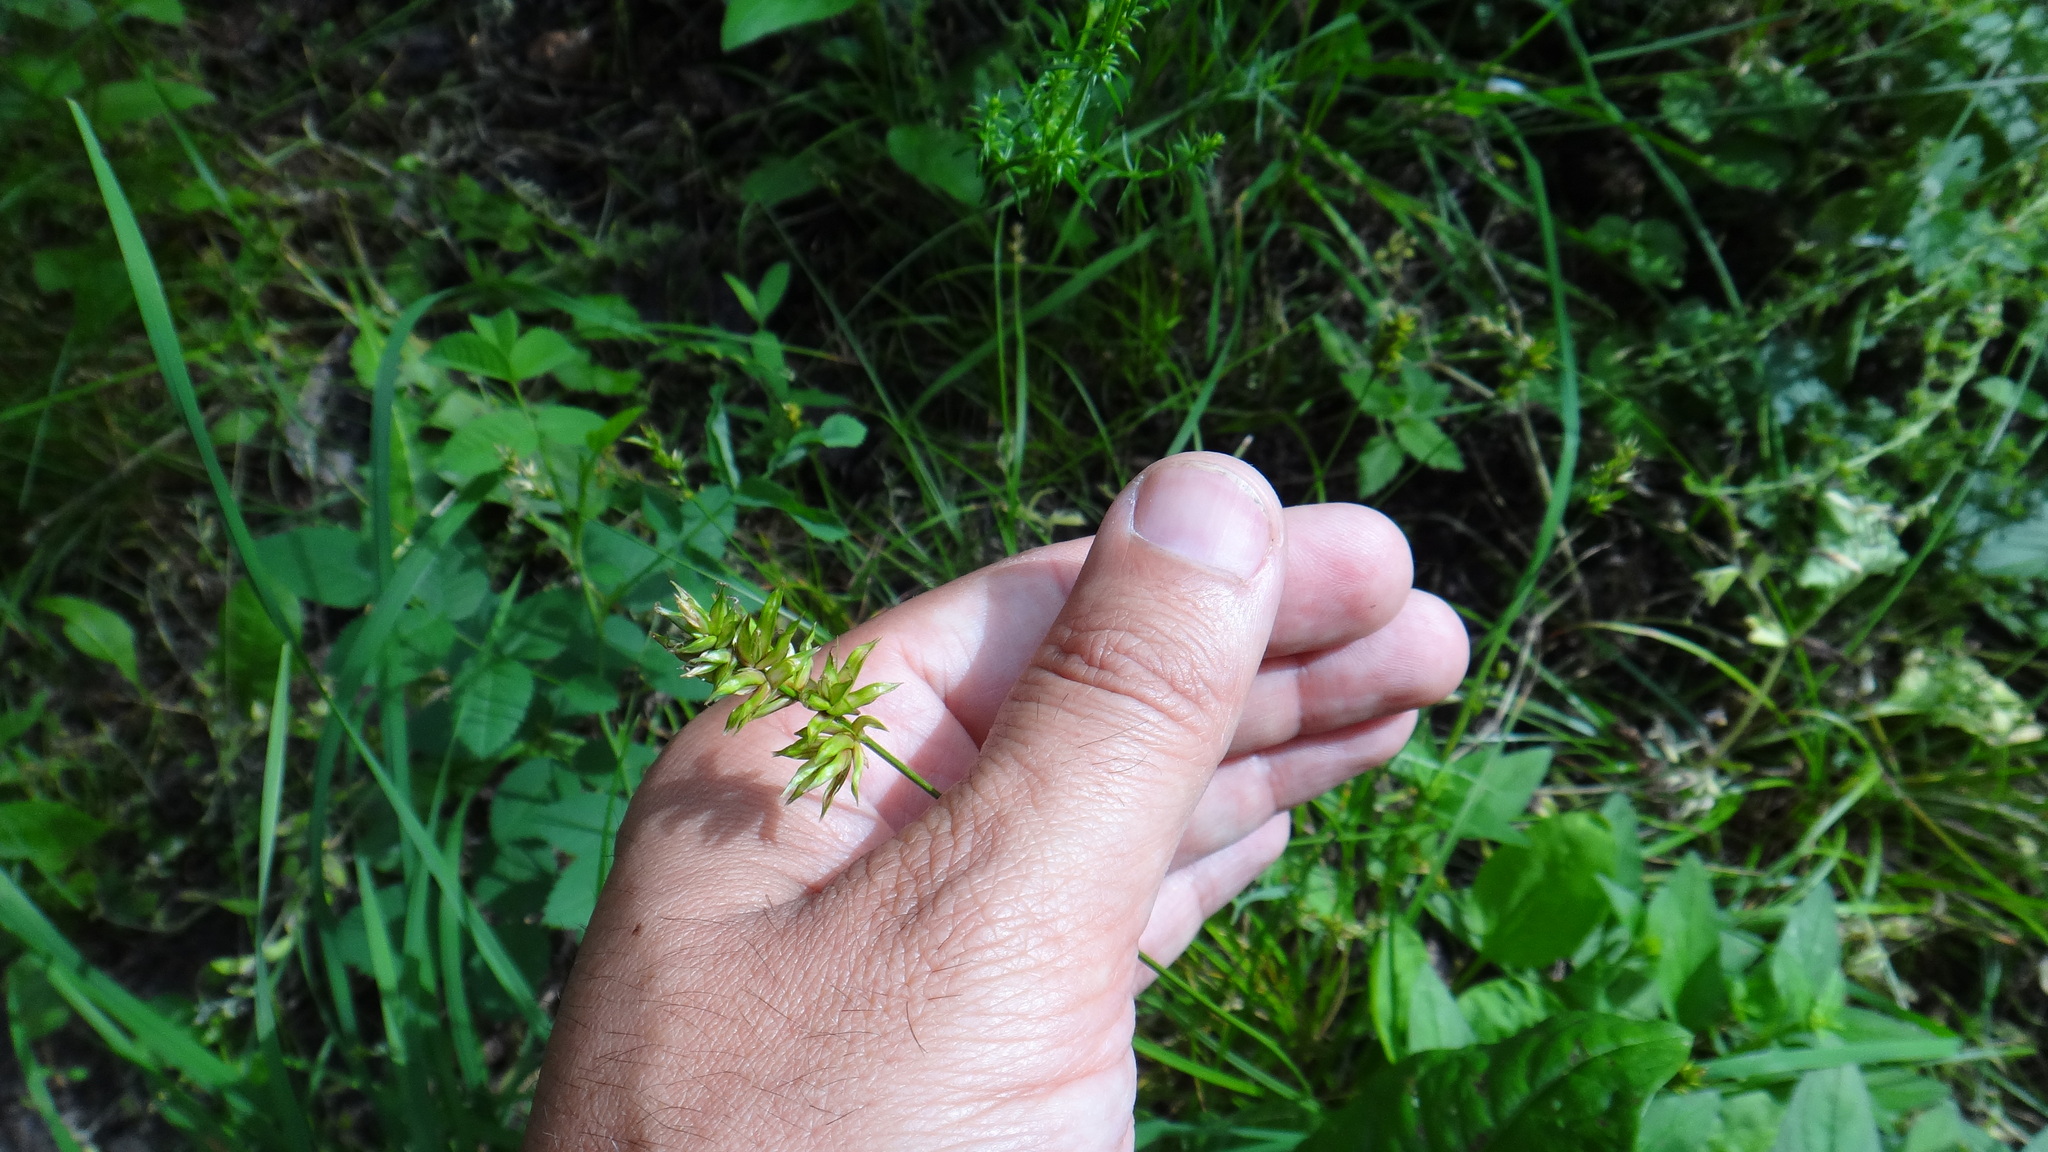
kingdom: Plantae
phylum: Tracheophyta
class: Liliopsida
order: Poales
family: Cyperaceae
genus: Carex
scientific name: Carex spicata
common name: Spiked sedge
